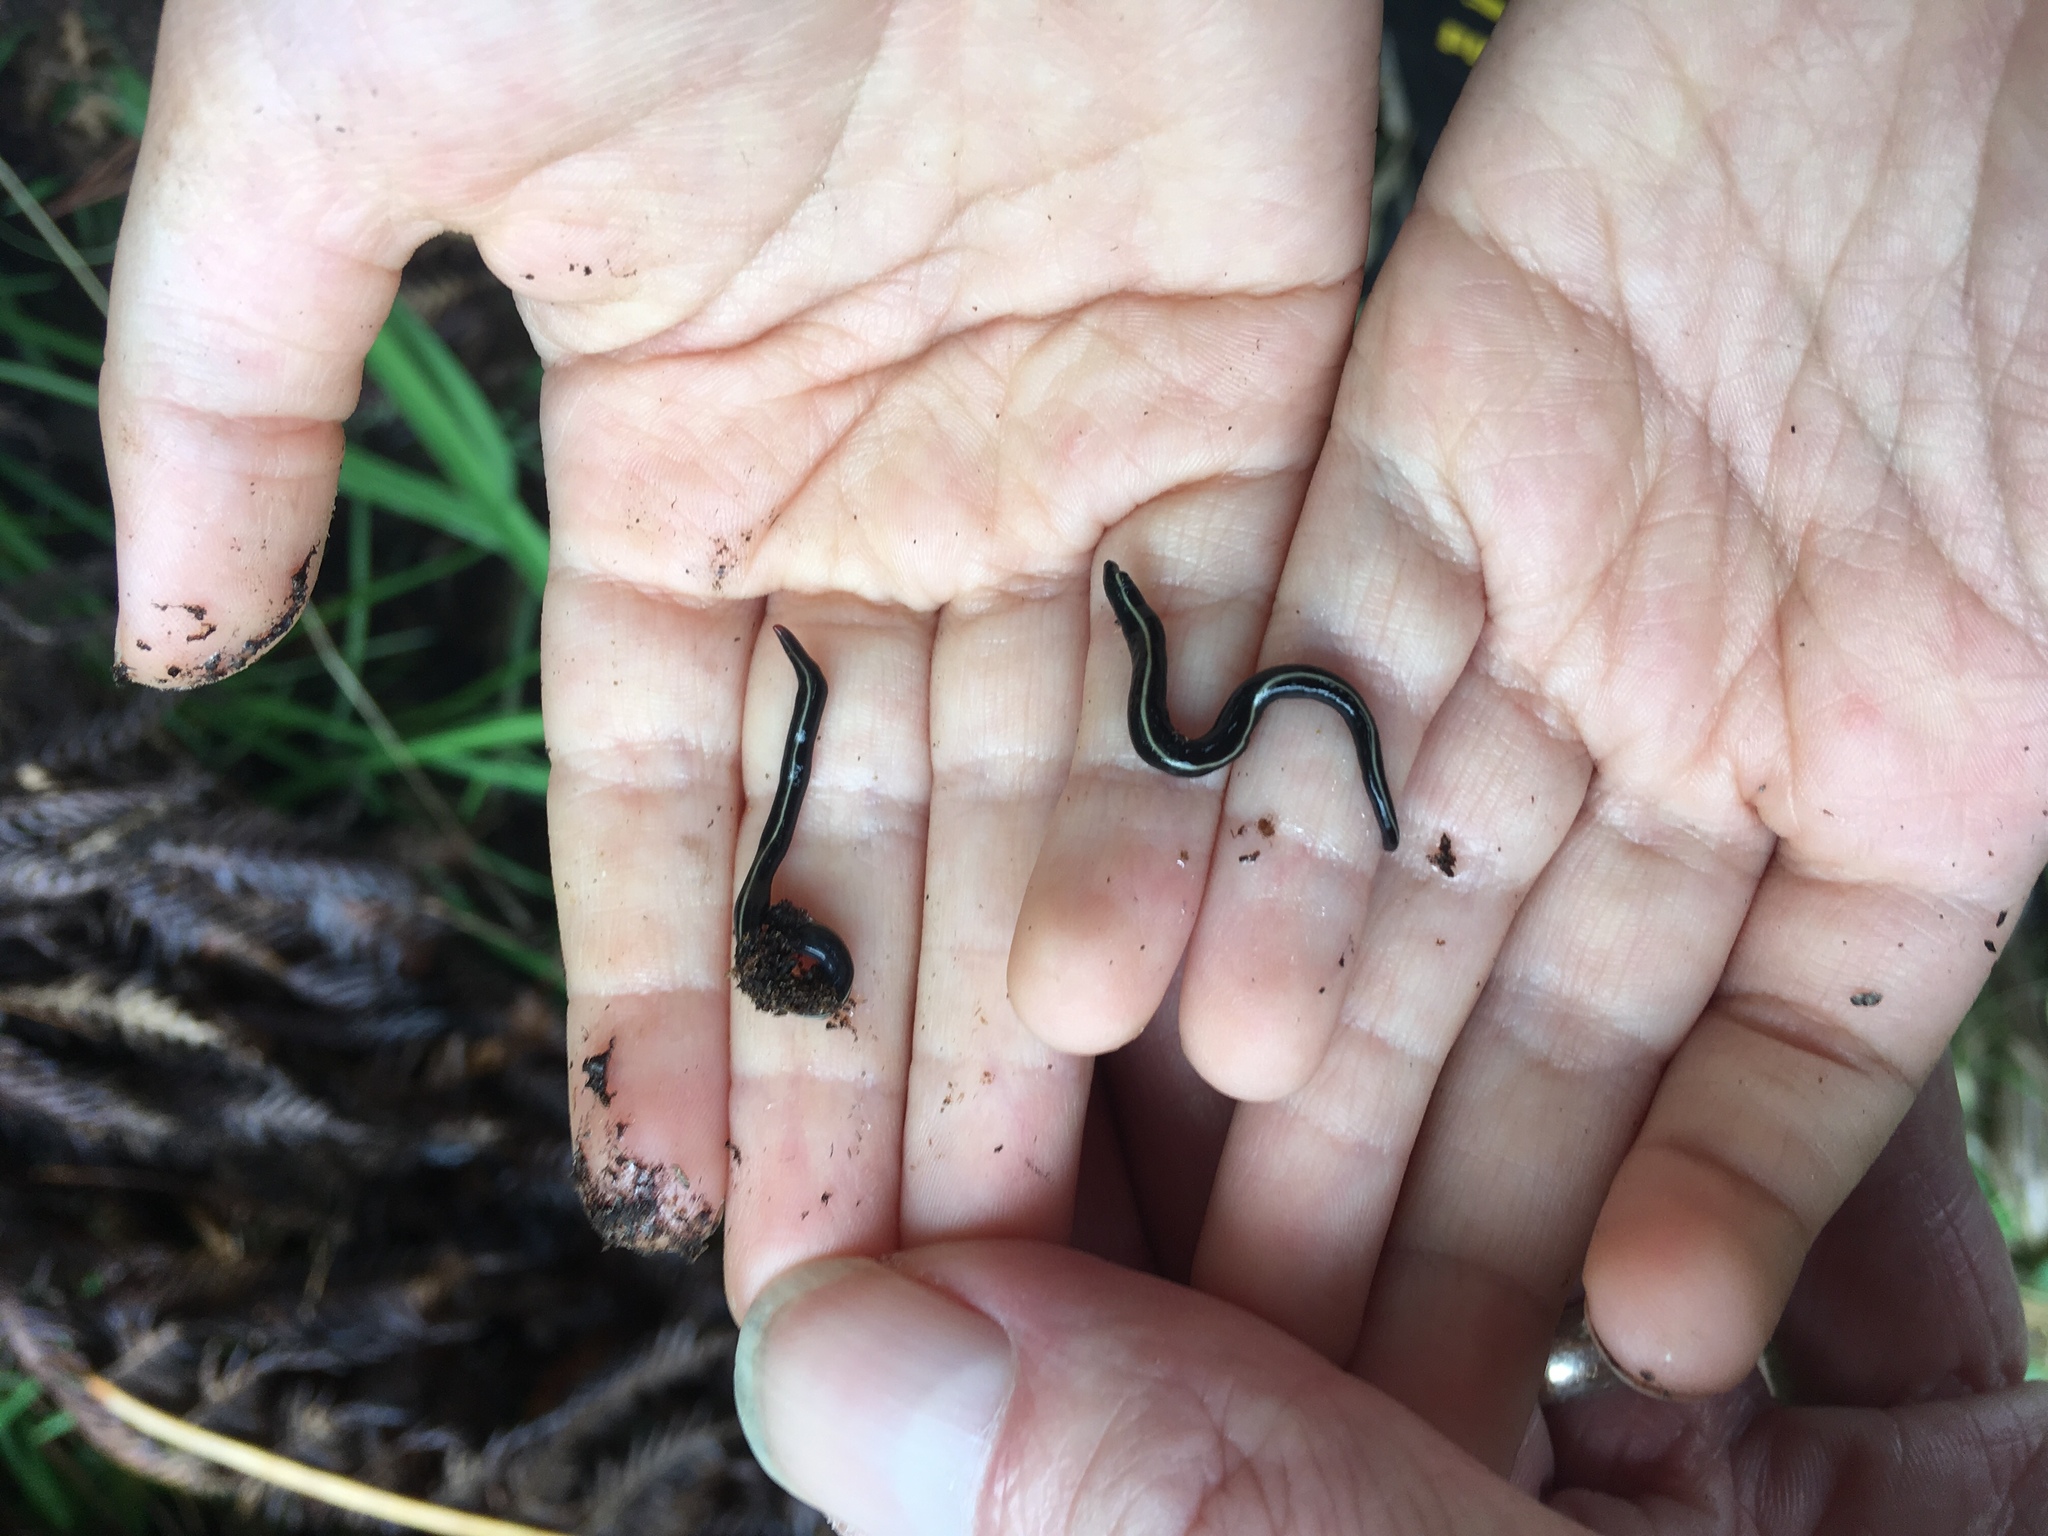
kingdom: Animalia
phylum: Platyhelminthes
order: Tricladida
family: Geoplanidae
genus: Caenoplana
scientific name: Caenoplana coerulea
